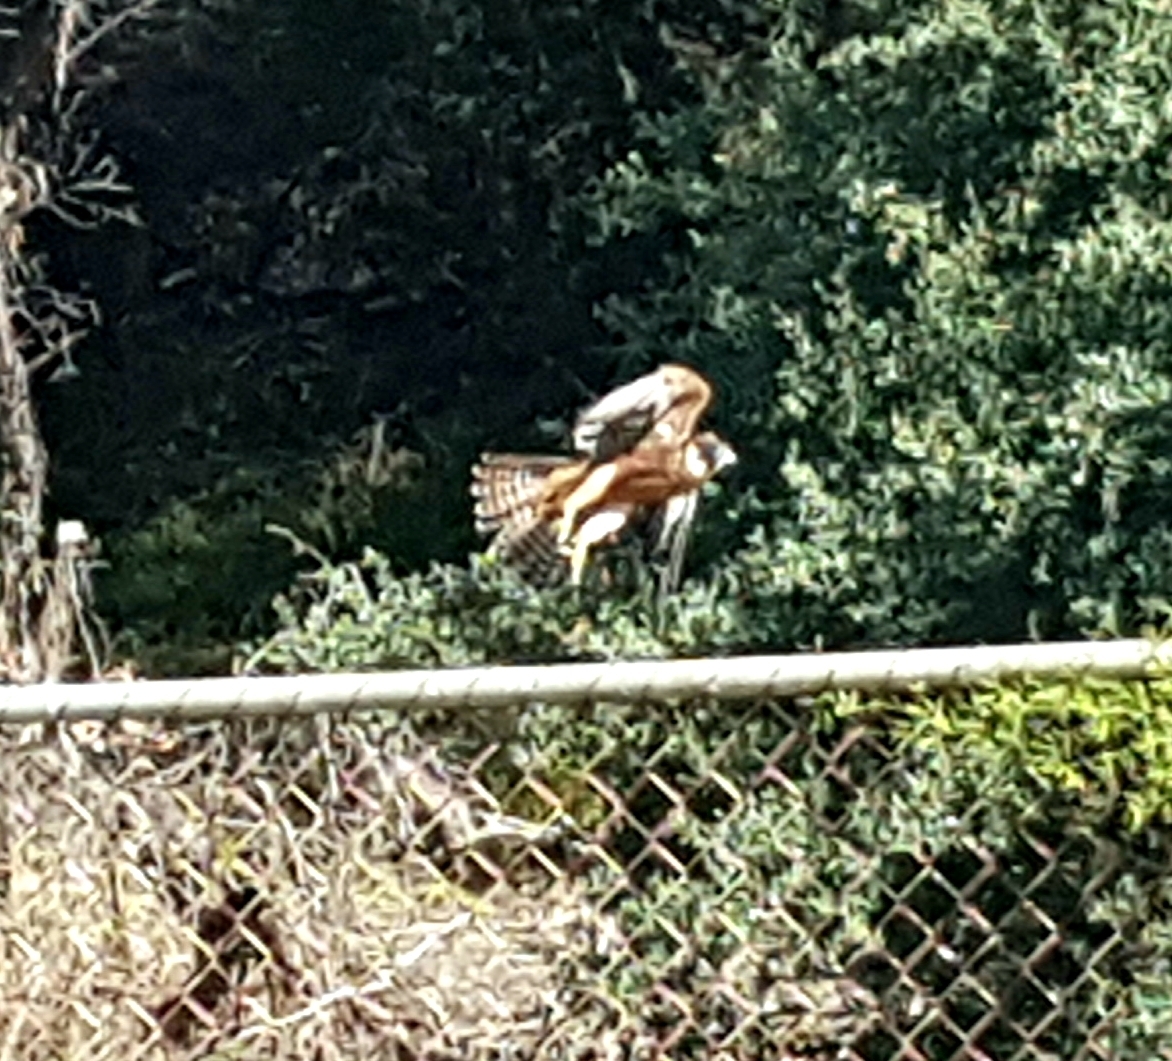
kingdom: Animalia
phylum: Chordata
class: Aves
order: Falconiformes
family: Falconidae
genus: Falco
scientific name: Falco longipennis
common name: Australian hobby
